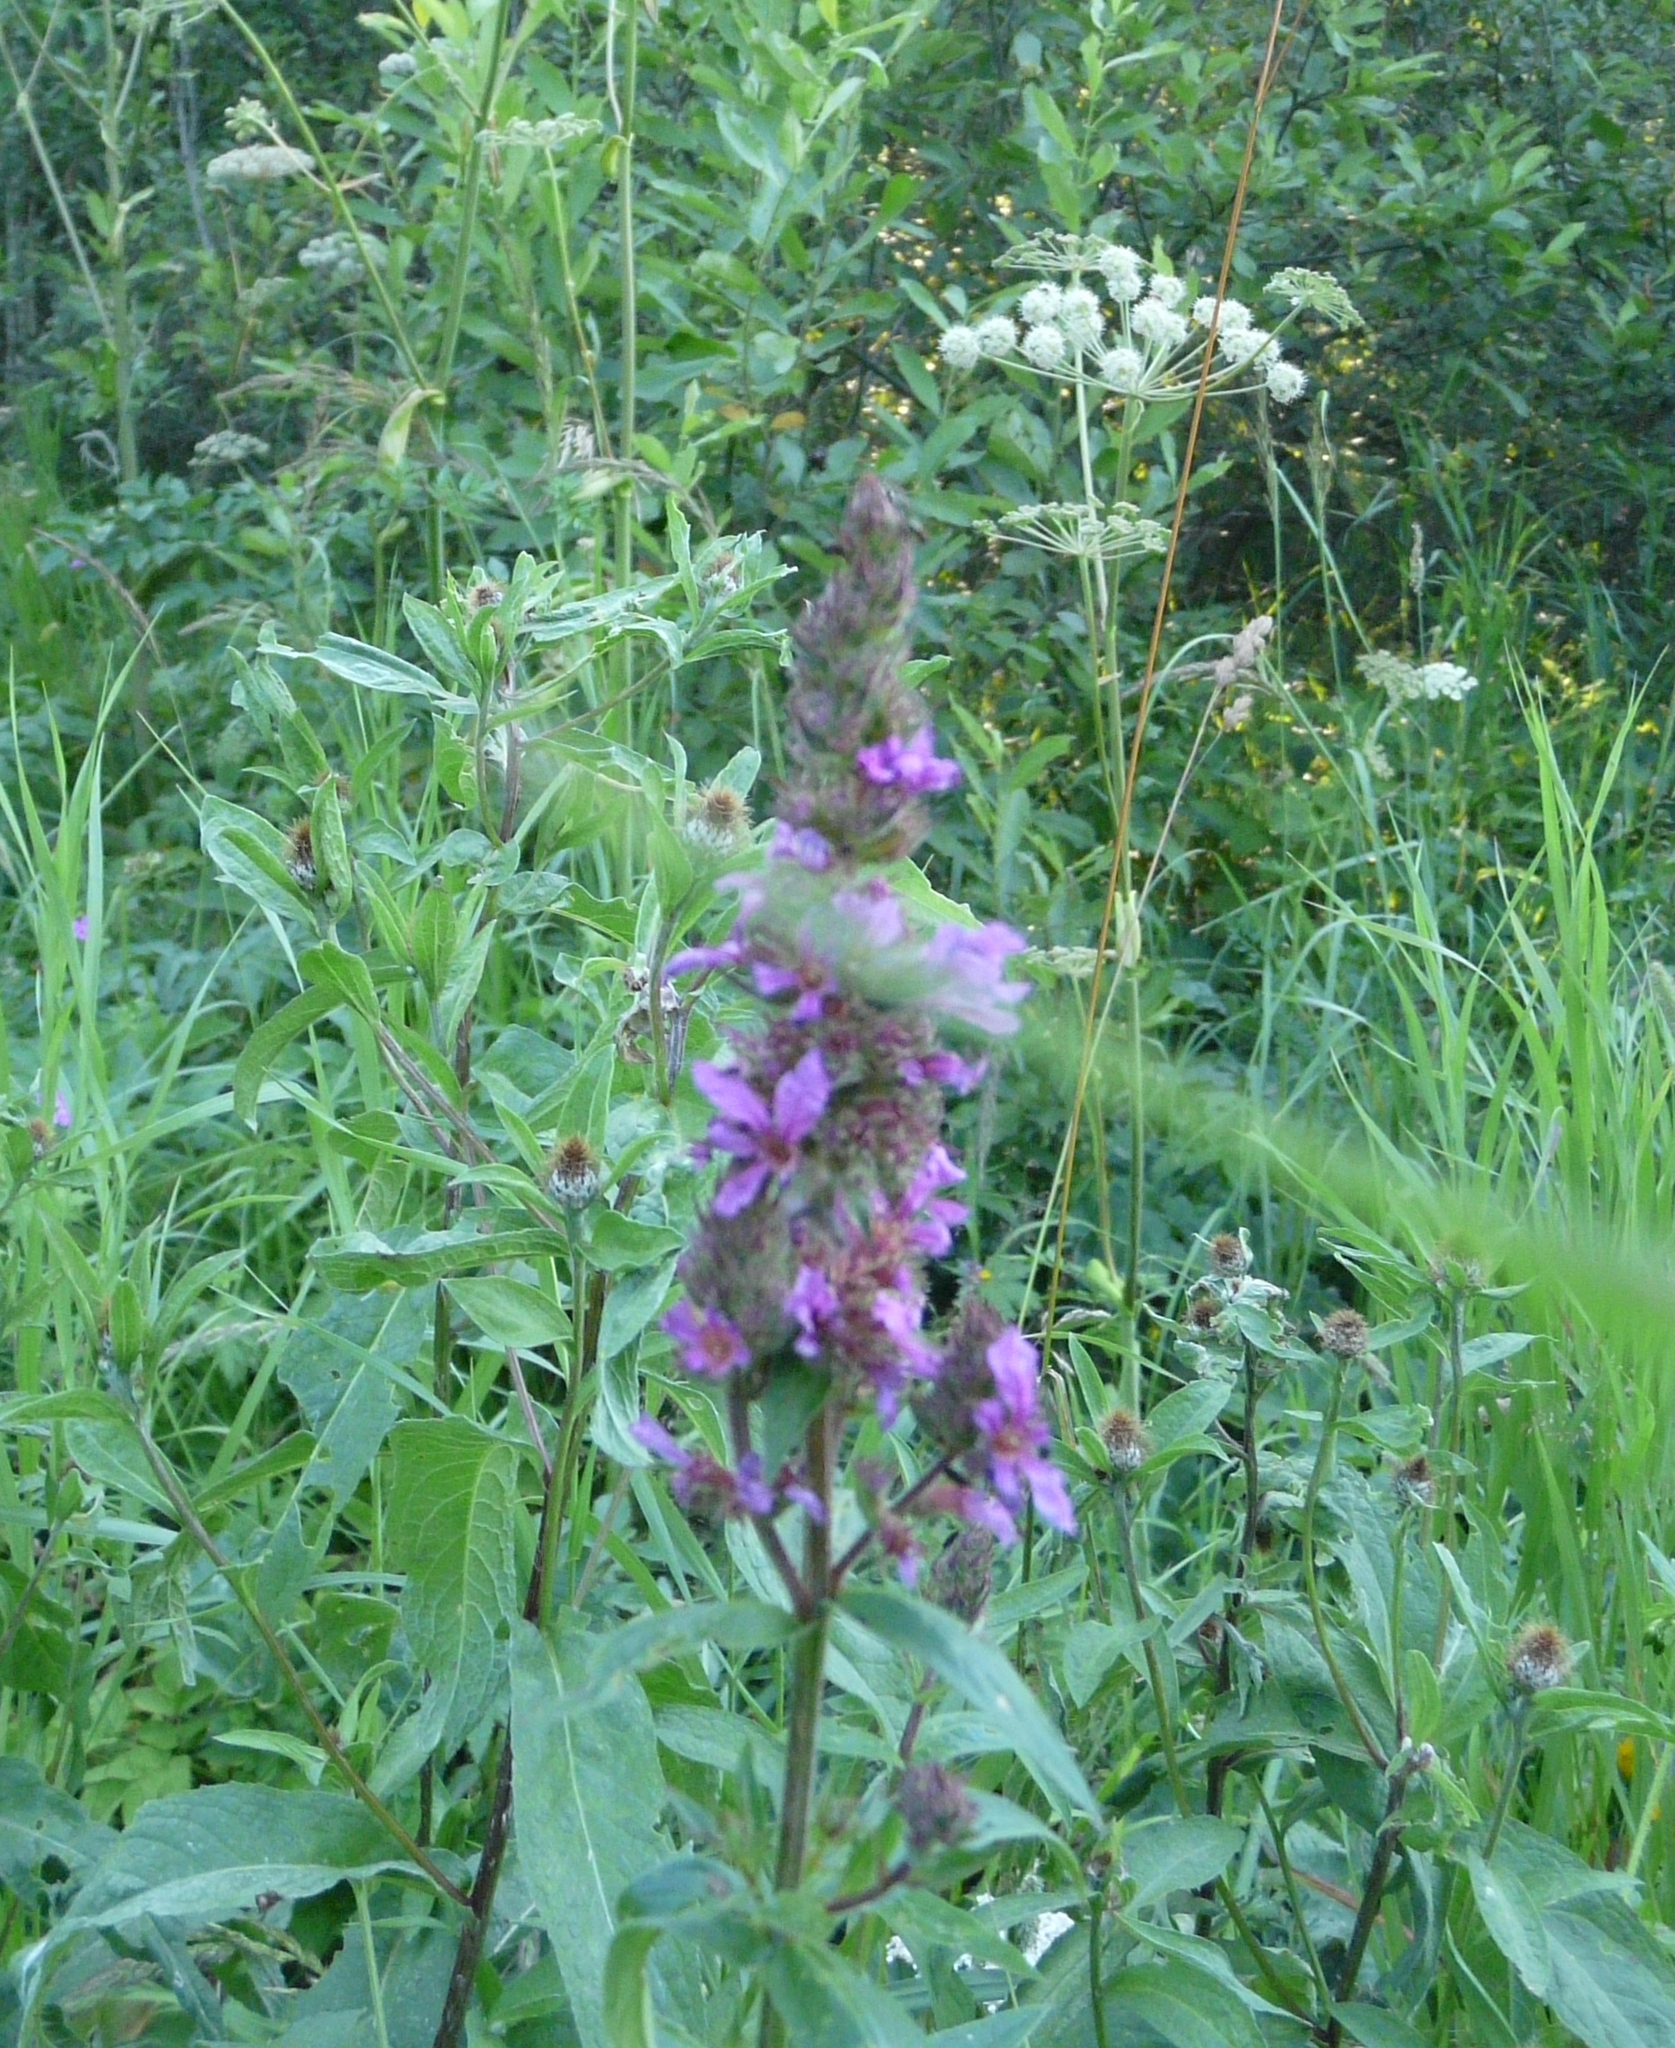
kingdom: Plantae
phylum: Tracheophyta
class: Magnoliopsida
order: Lamiales
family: Lamiaceae
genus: Stachys
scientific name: Stachys palustris
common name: Marsh woundwort
